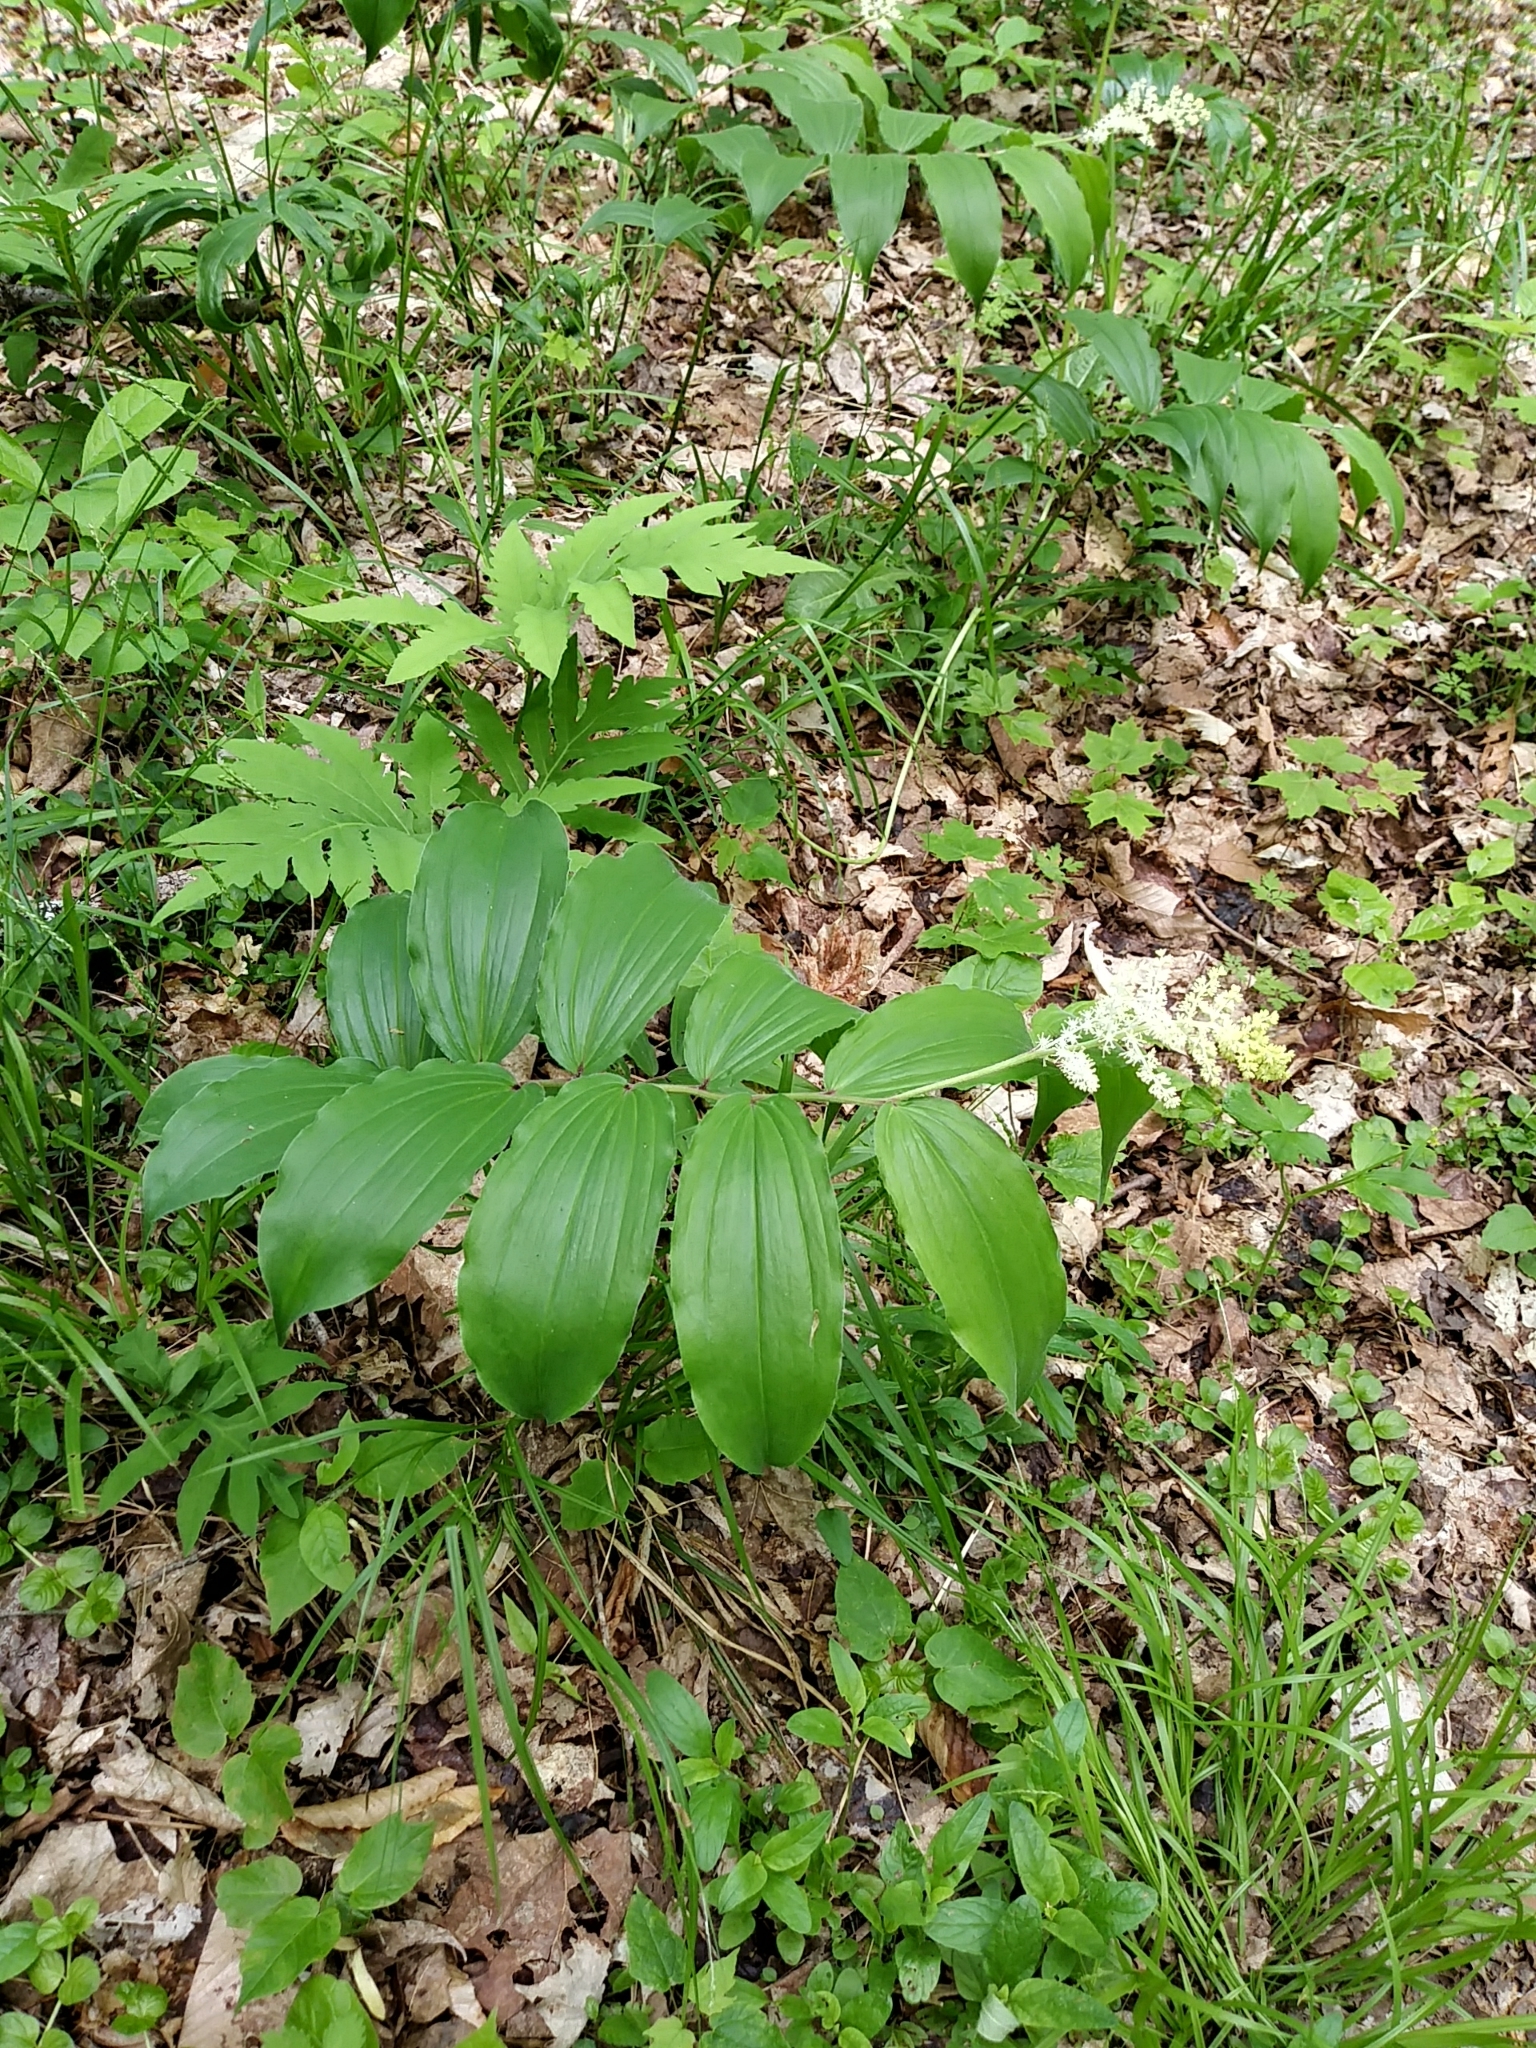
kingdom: Plantae
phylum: Tracheophyta
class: Liliopsida
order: Asparagales
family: Asparagaceae
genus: Maianthemum
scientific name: Maianthemum racemosum
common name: False spikenard
